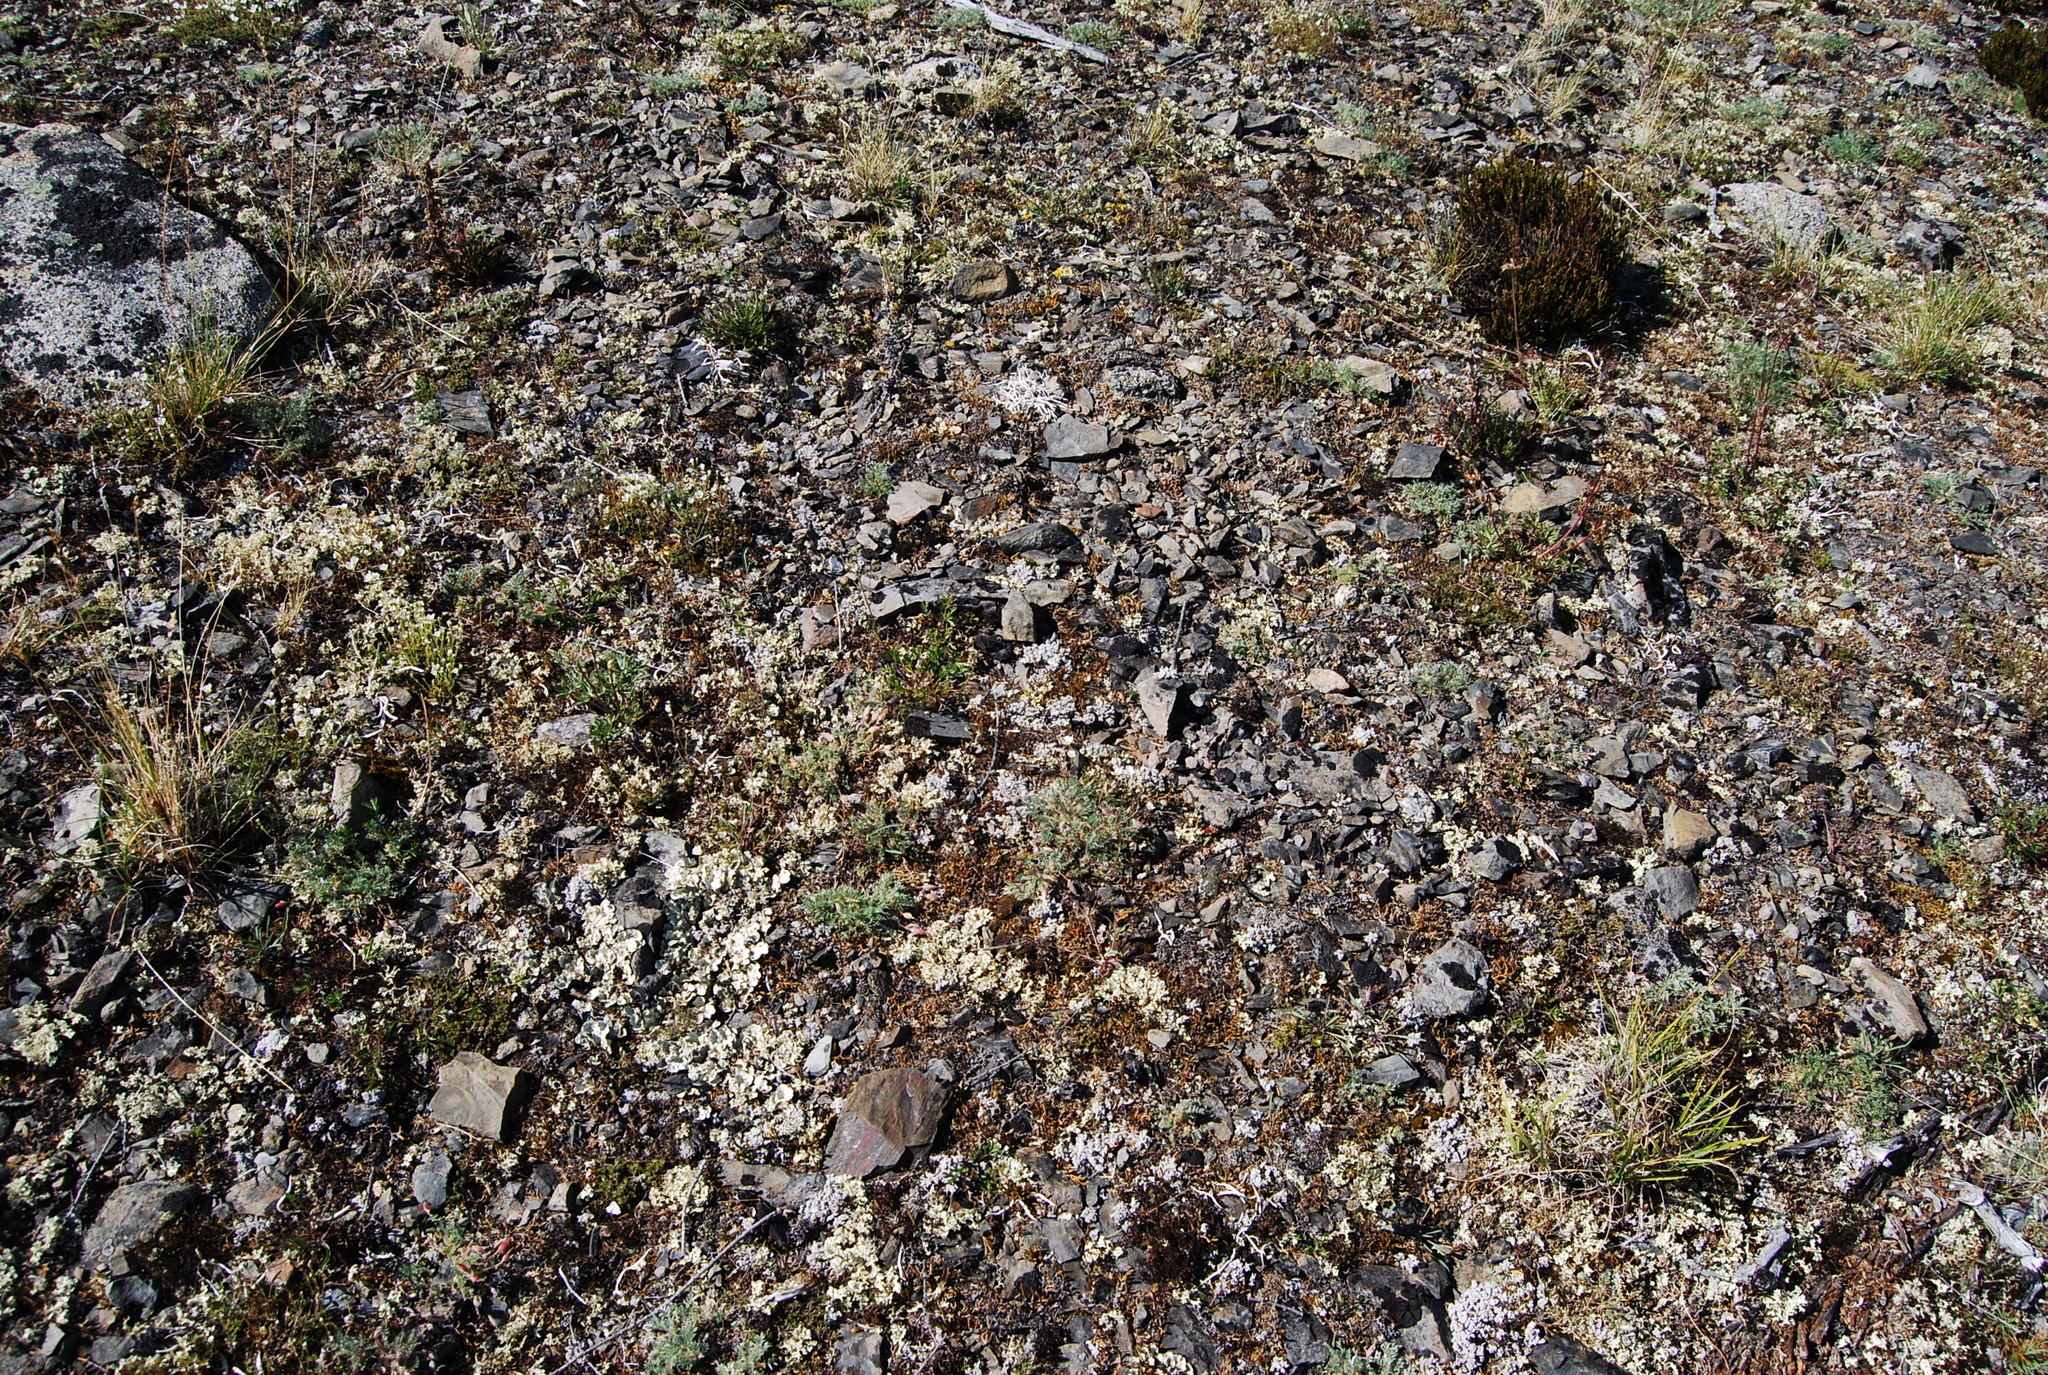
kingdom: Plantae
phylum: Tracheophyta
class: Magnoliopsida
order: Fabales
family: Fabaceae
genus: Oxytropis
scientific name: Oxytropis susumanica
